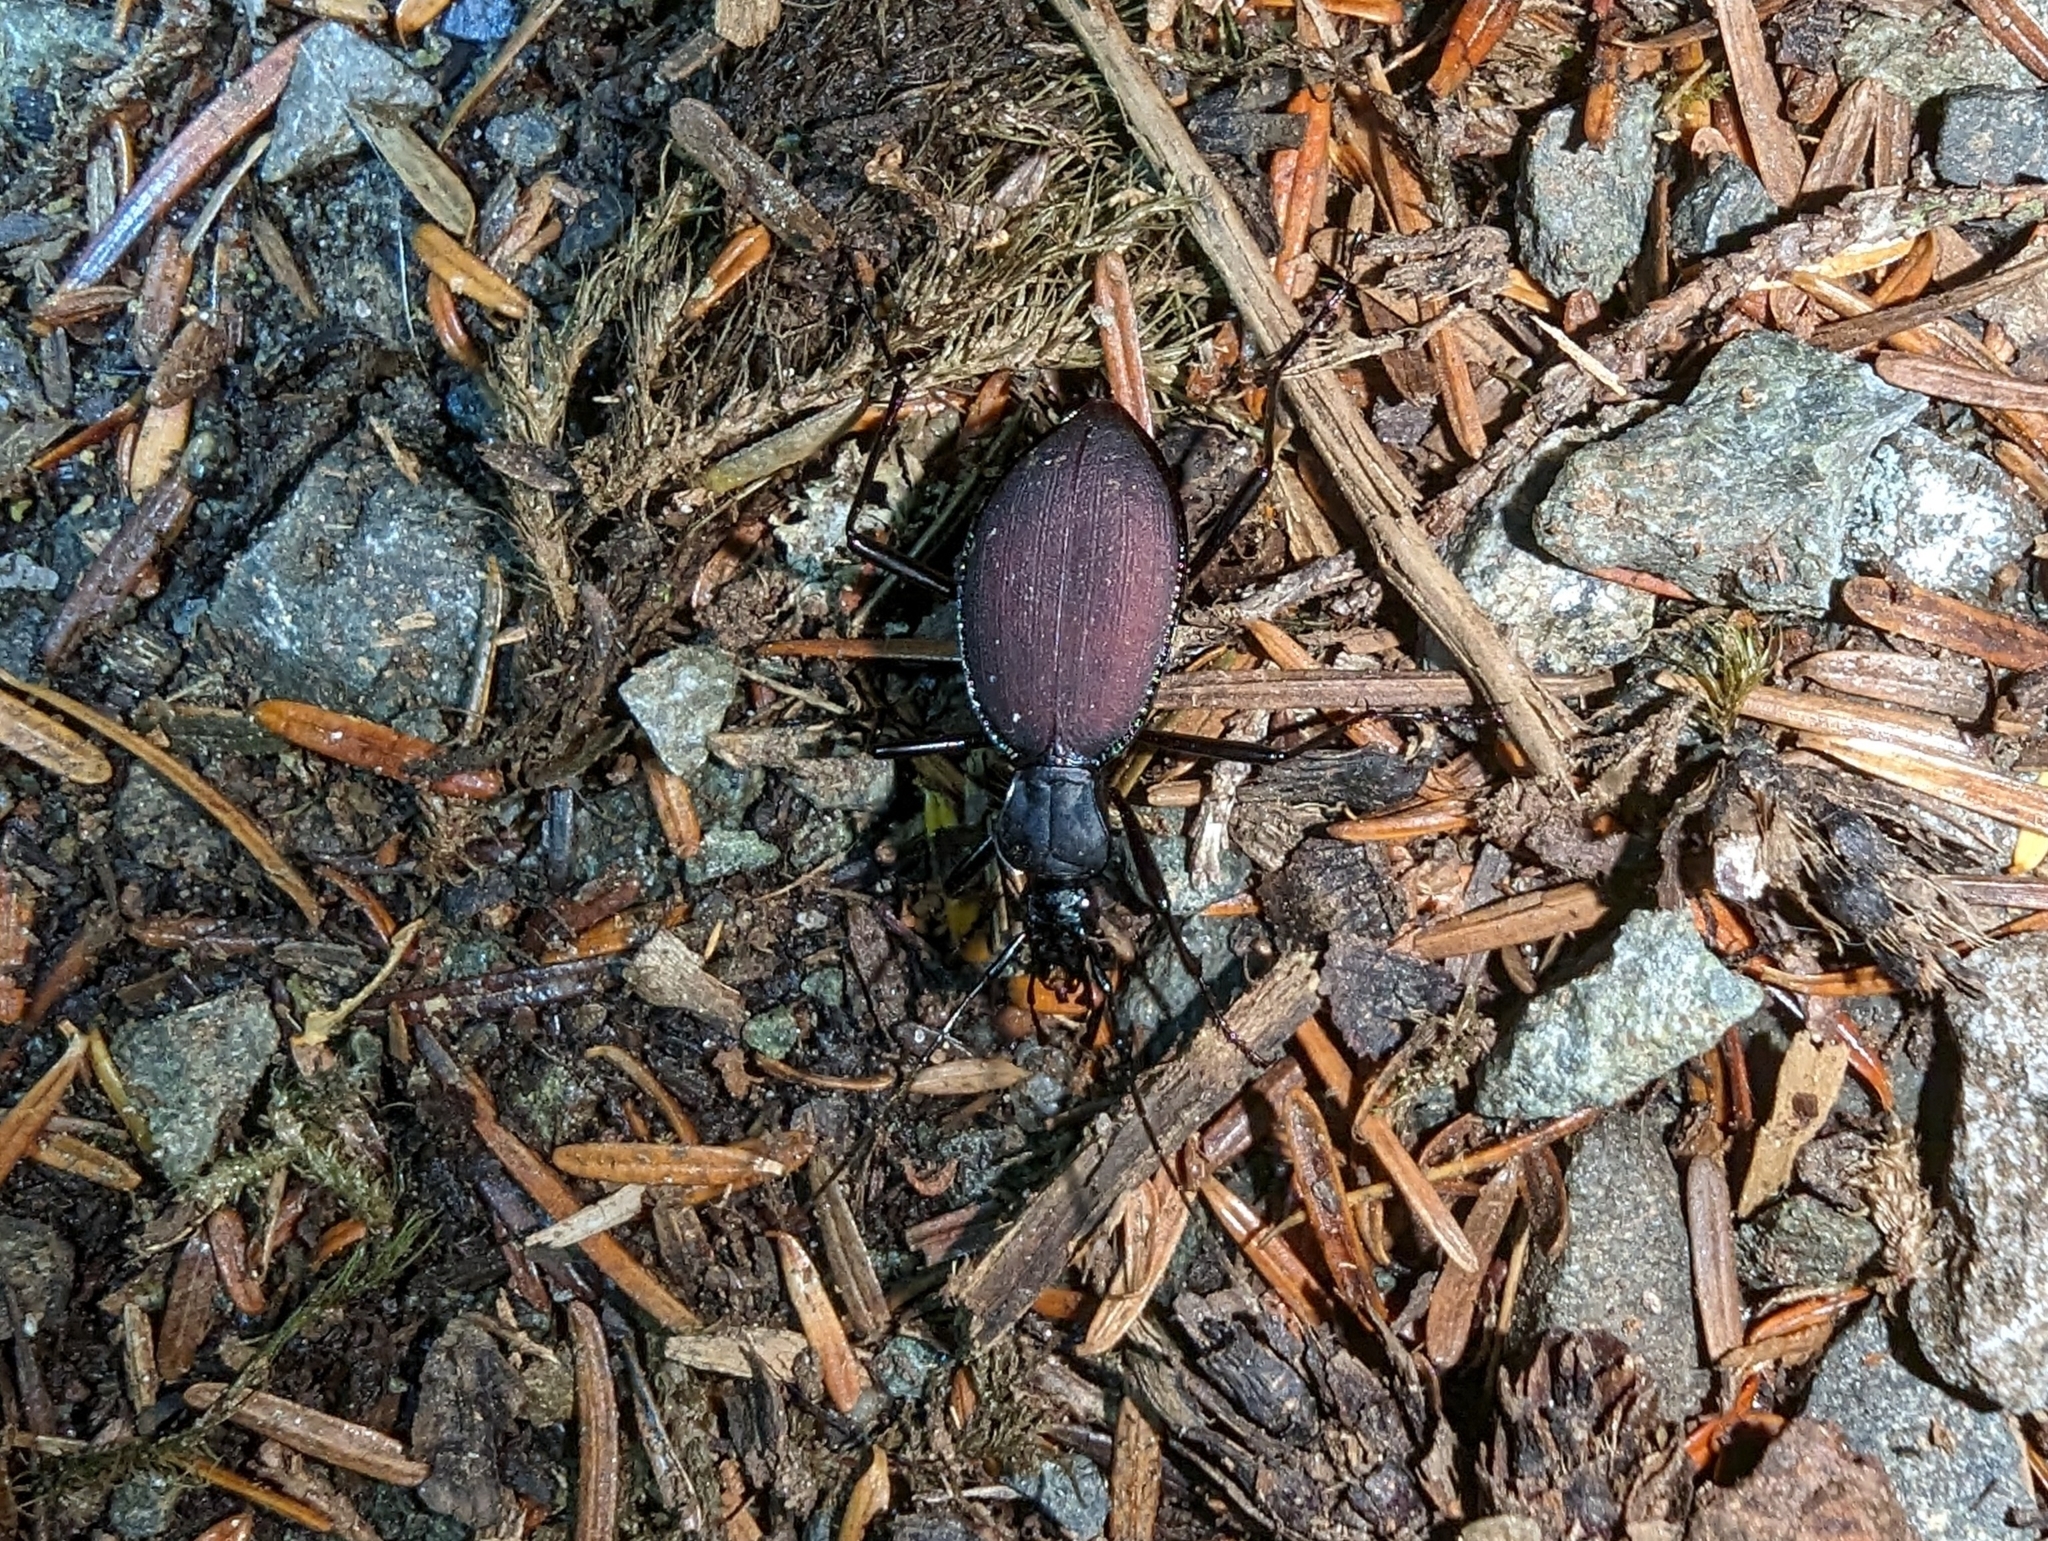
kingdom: Animalia
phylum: Arthropoda
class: Insecta
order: Coleoptera
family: Carabidae
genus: Scaphinotus
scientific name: Scaphinotus angusticollis
